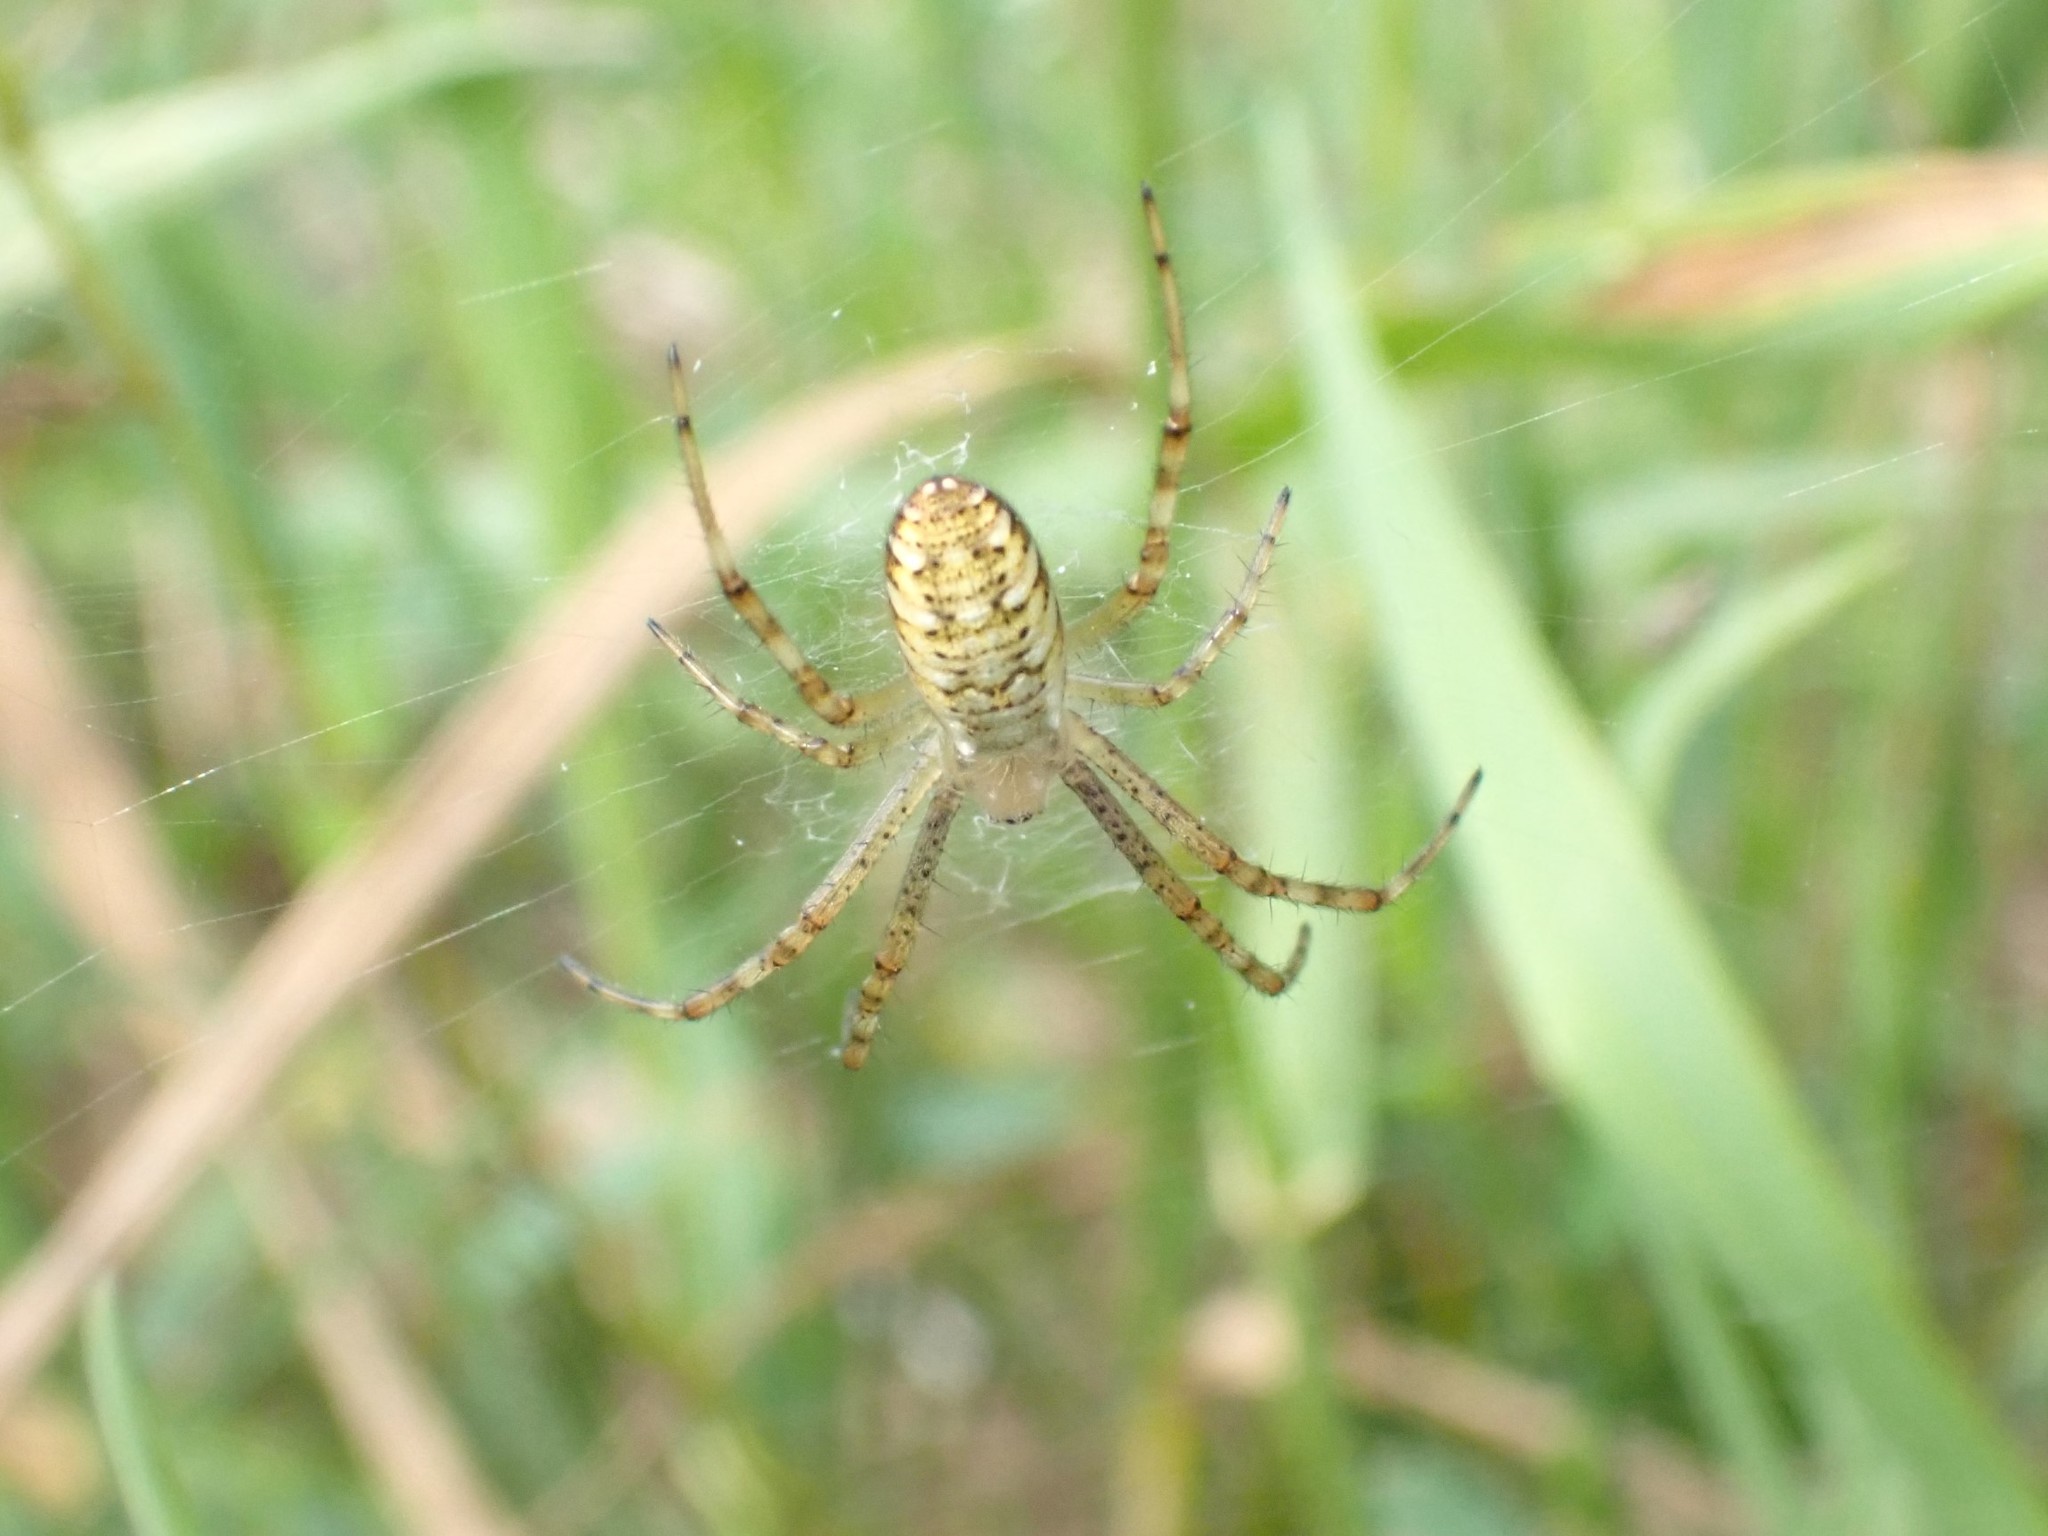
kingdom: Animalia
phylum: Arthropoda
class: Arachnida
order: Araneae
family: Araneidae
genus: Argiope
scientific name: Argiope bruennichi
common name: Wasp spider
